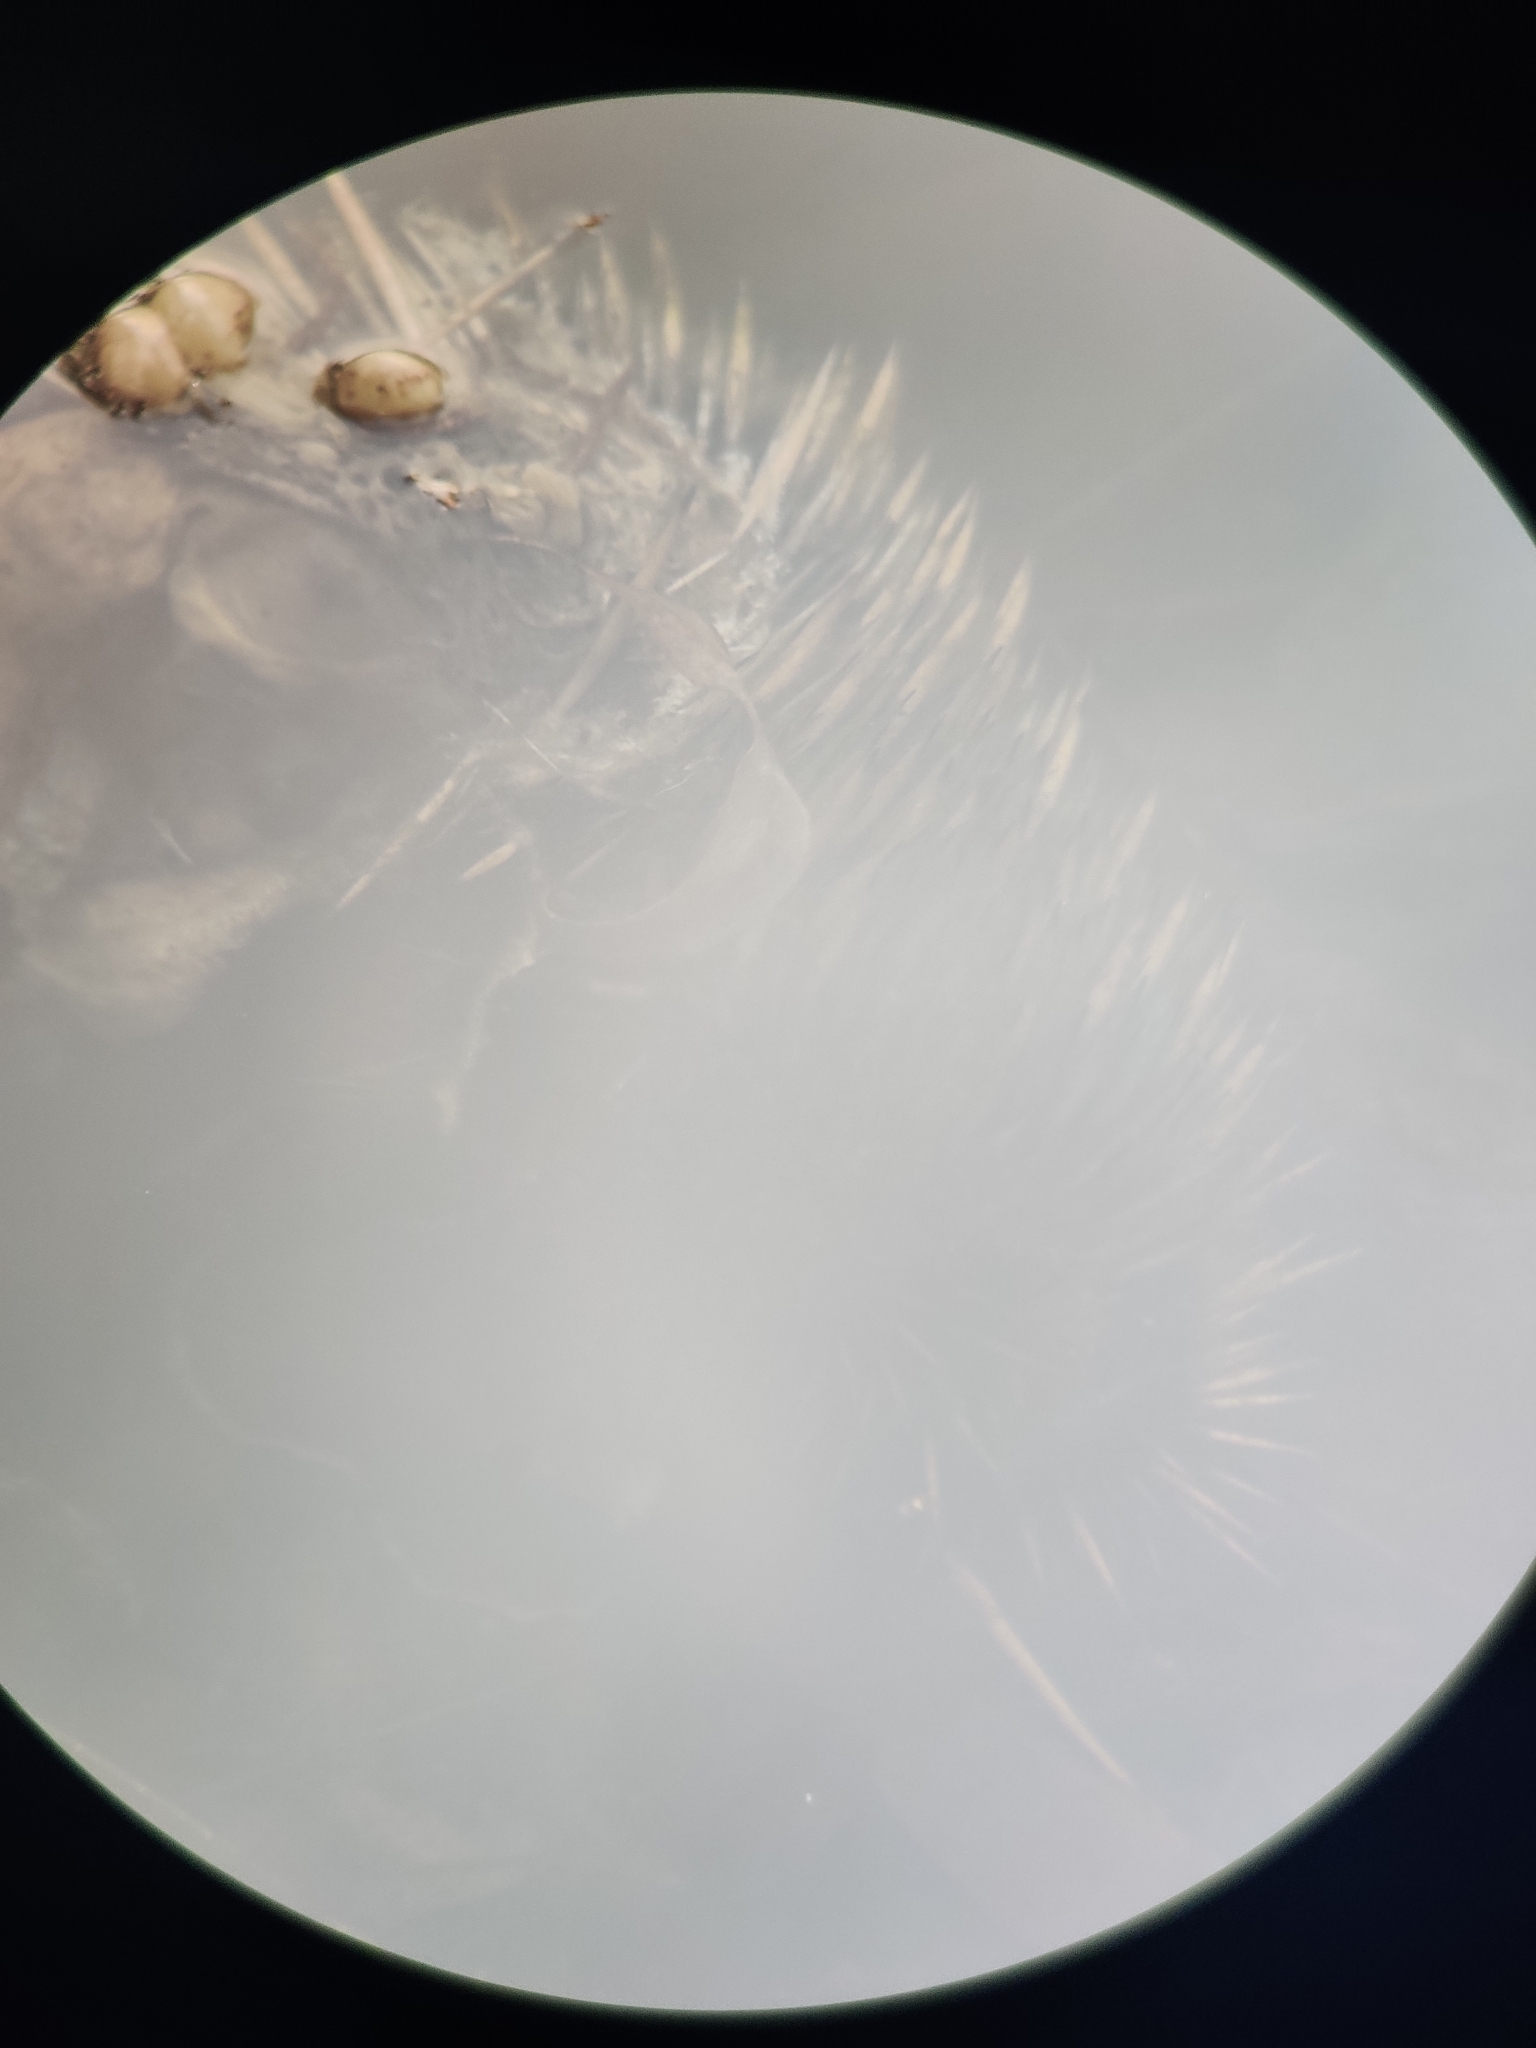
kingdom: Animalia
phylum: Chordata
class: Mammalia
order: Monotremata
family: Tachyglossidae
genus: Tachyglossus
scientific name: Tachyglossus aculeatus
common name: Short-beaked echidna
